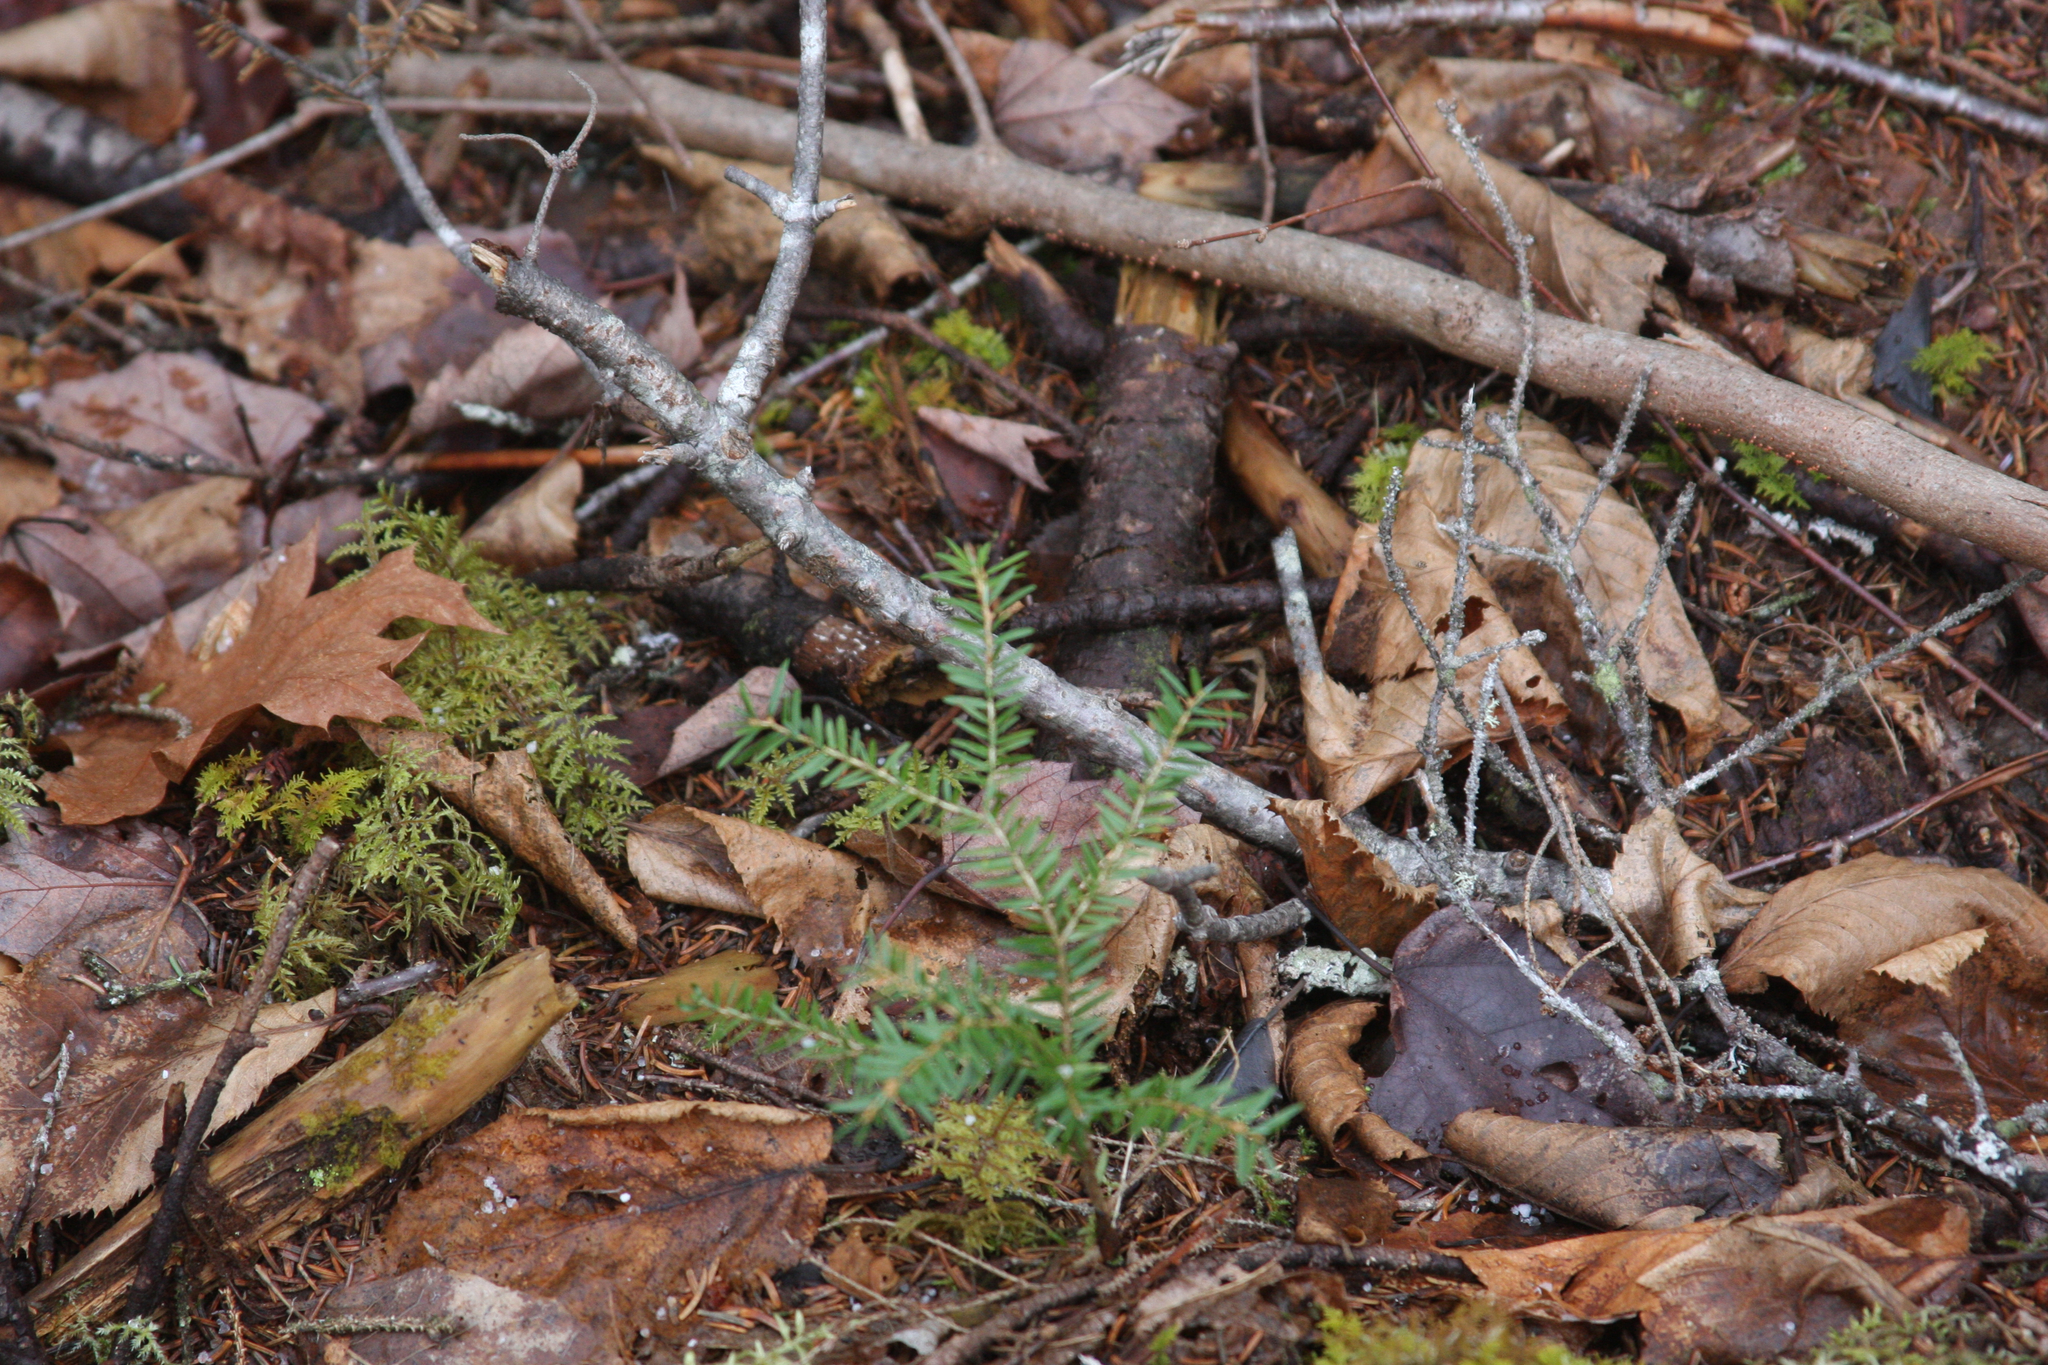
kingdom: Plantae
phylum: Tracheophyta
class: Pinopsida
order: Pinales
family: Pinaceae
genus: Tsuga
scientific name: Tsuga canadensis
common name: Eastern hemlock
